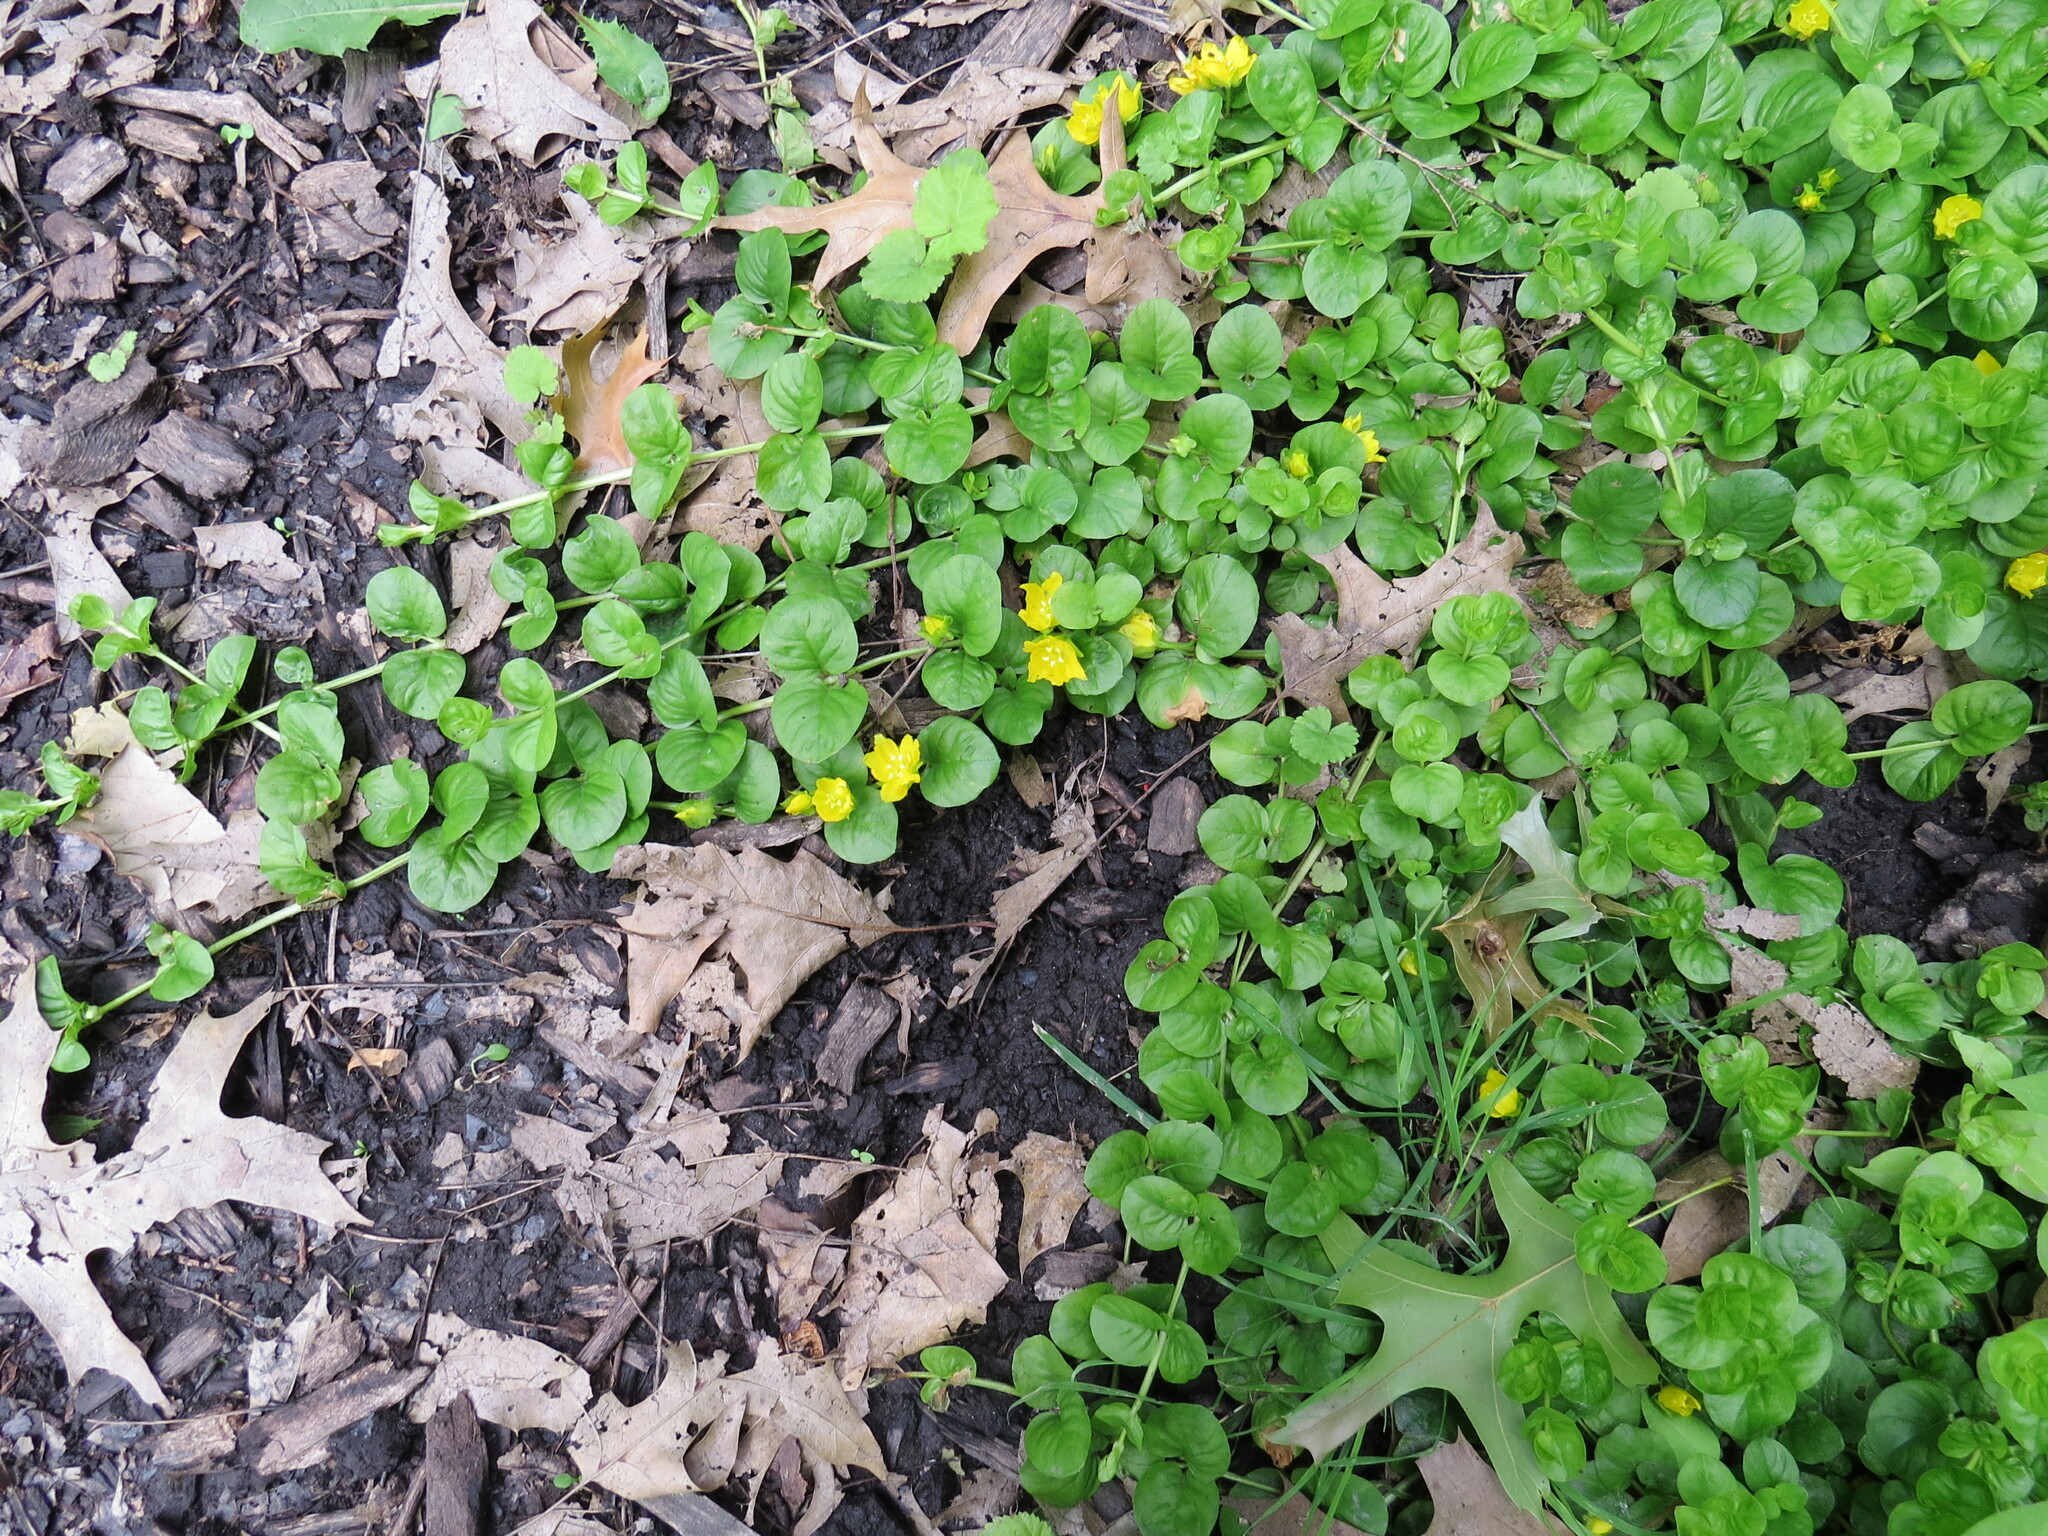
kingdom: Plantae
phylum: Tracheophyta
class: Magnoliopsida
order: Ericales
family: Primulaceae
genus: Lysimachia
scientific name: Lysimachia nummularia
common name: Moneywort
